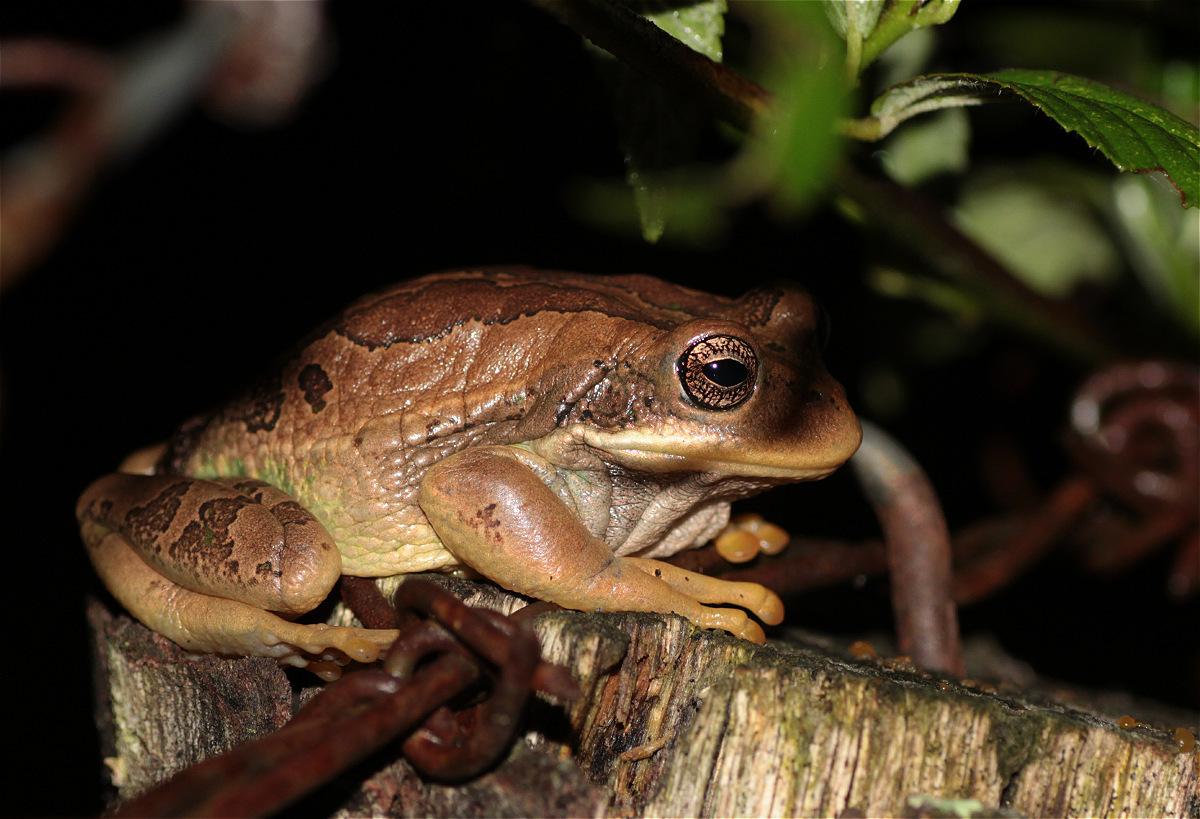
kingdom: Animalia
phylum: Chordata
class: Amphibia
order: Anura
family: Hemiphractidae
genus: Gastrotheca
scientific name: Gastrotheca cuencana
